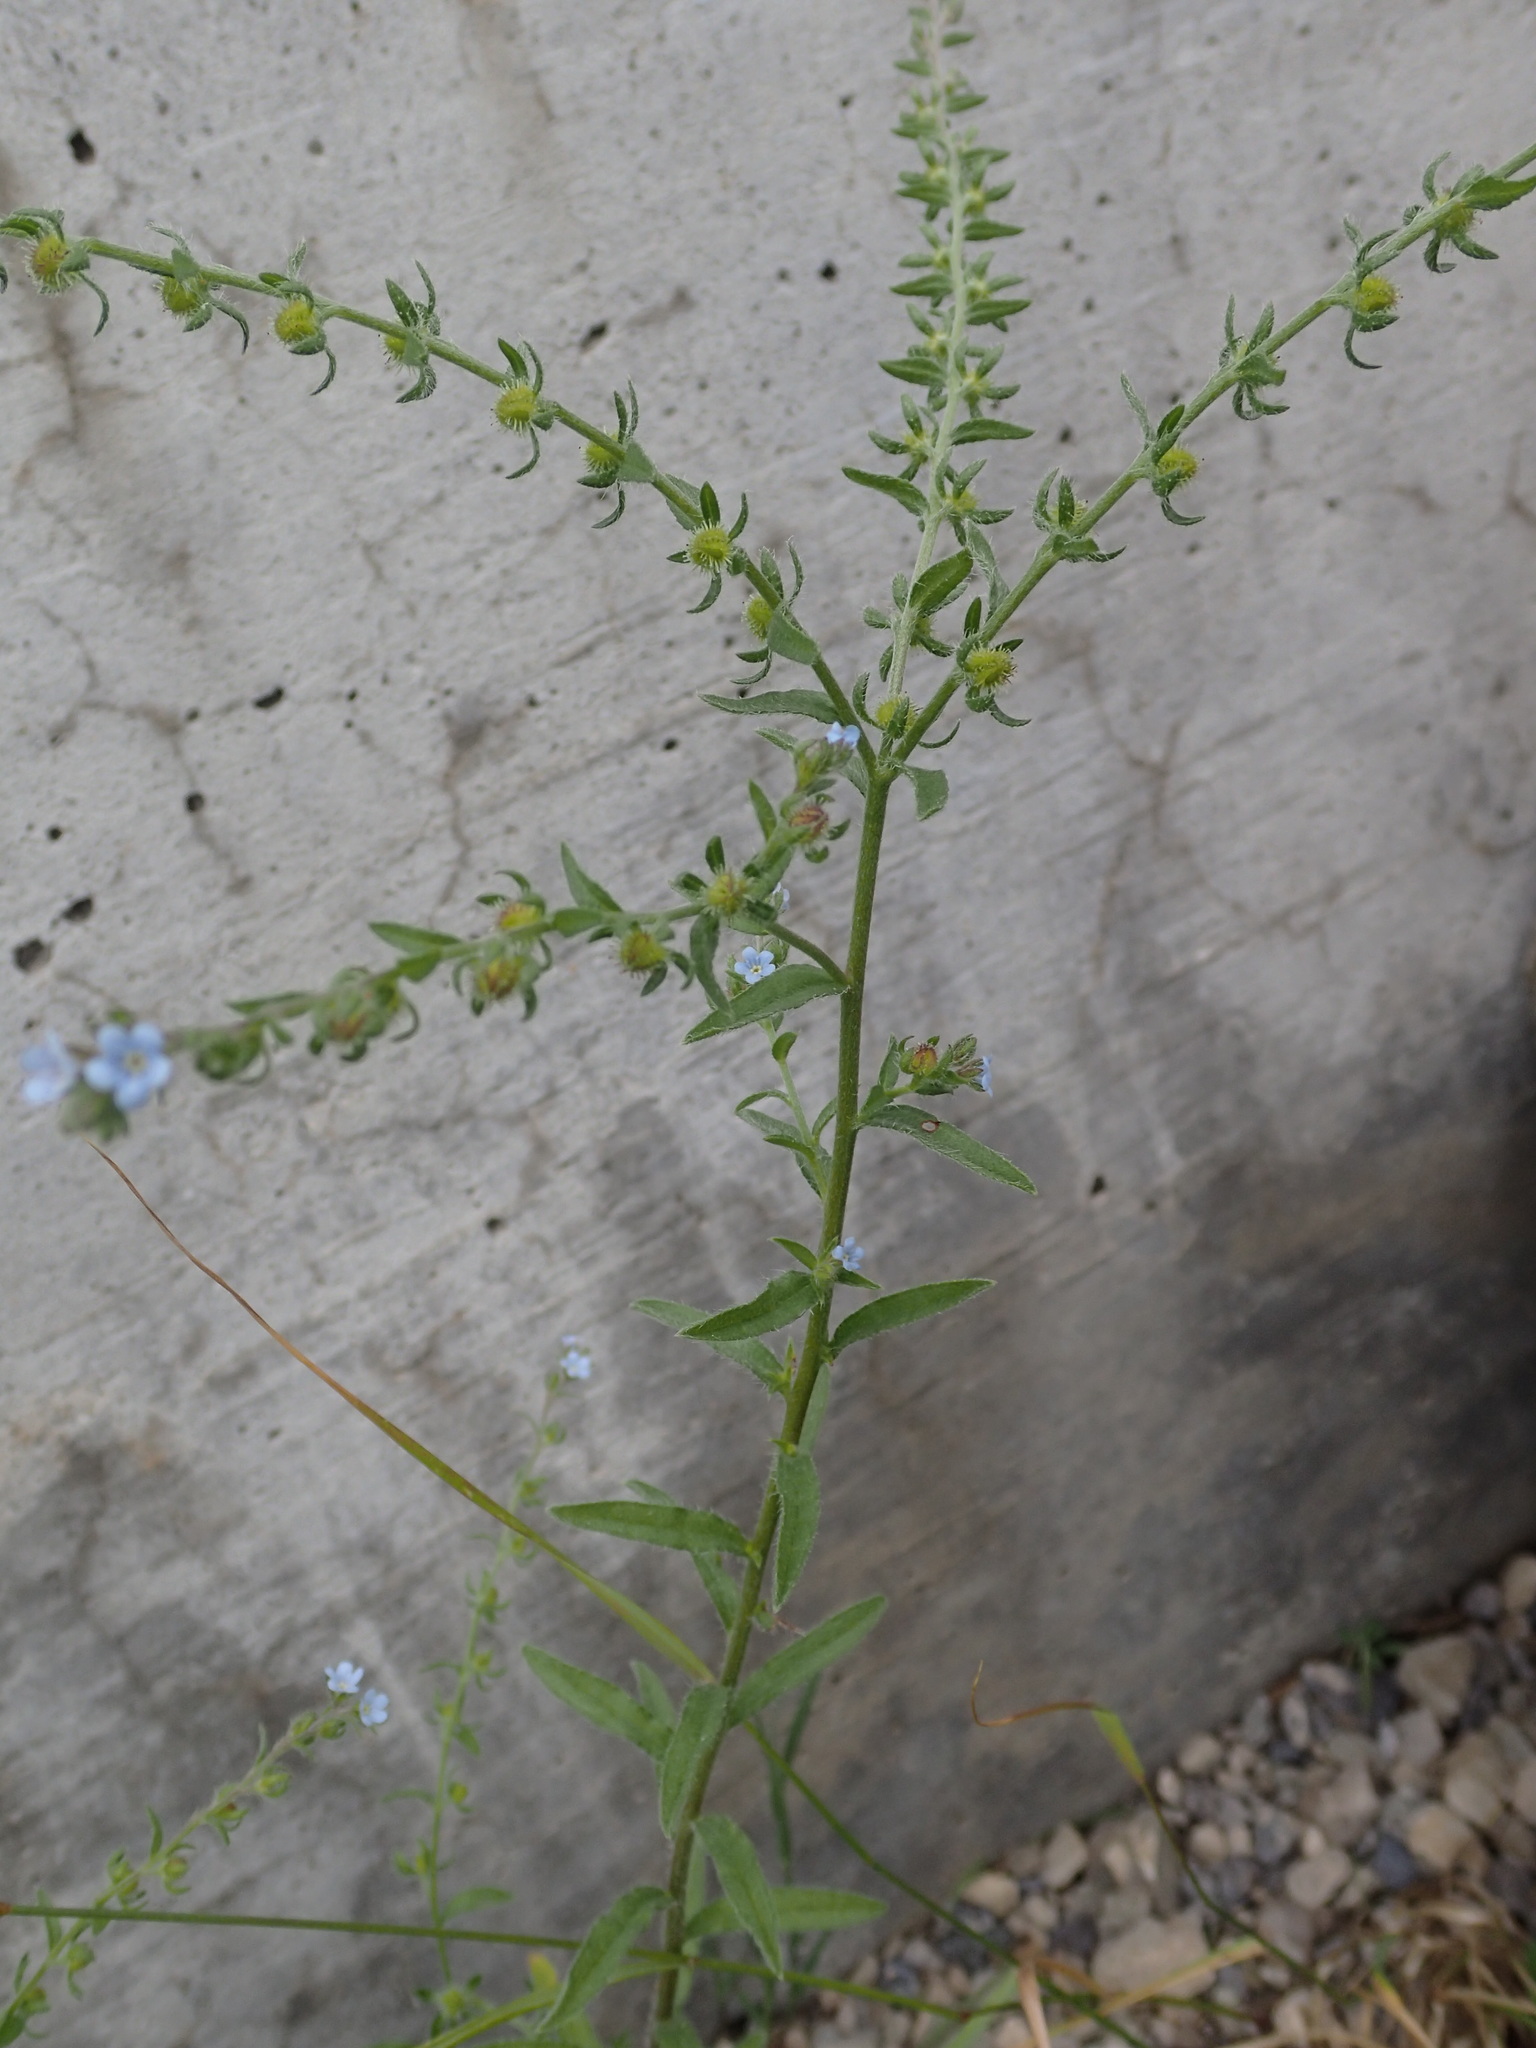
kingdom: Plantae
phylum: Tracheophyta
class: Magnoliopsida
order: Boraginales
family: Boraginaceae
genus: Lappula
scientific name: Lappula squarrosa
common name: European stickseed
